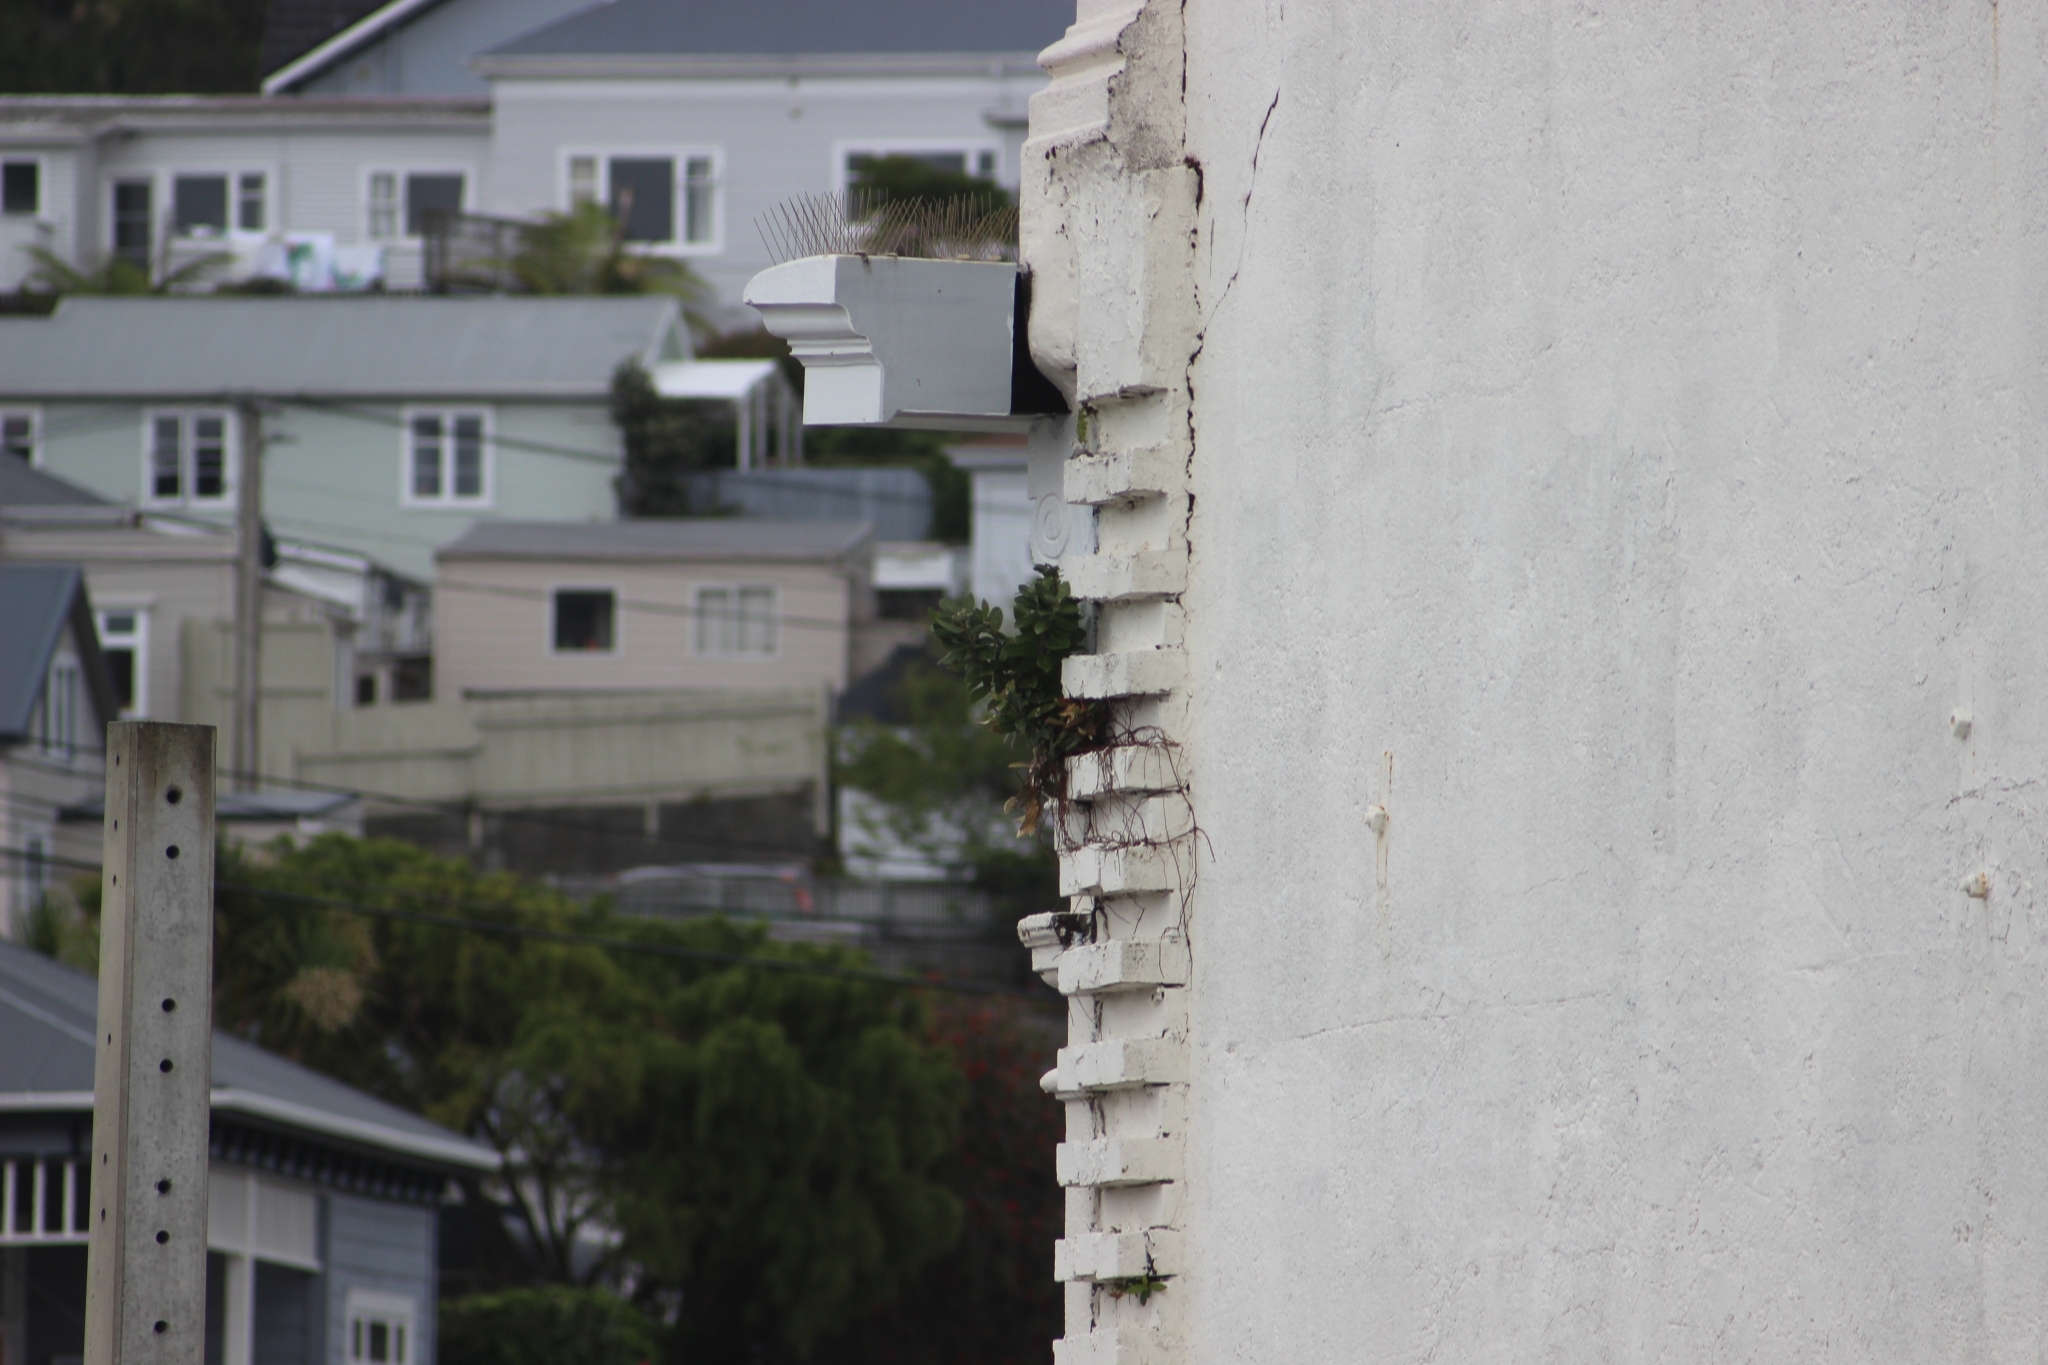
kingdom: Plantae
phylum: Tracheophyta
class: Magnoliopsida
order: Myrtales
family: Myrtaceae
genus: Metrosideros
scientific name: Metrosideros excelsa
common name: New zealand christmastree
